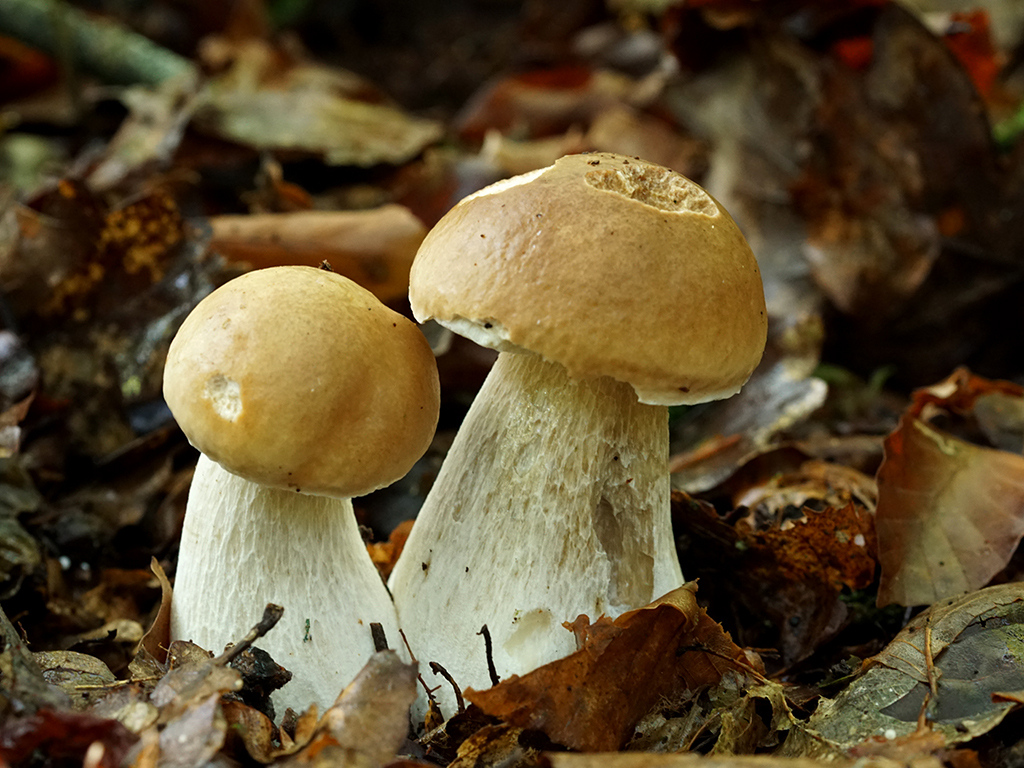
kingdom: Fungi
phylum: Basidiomycota
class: Agaricomycetes
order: Boletales
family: Boletaceae
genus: Boletus
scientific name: Boletus edulis
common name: Cep
